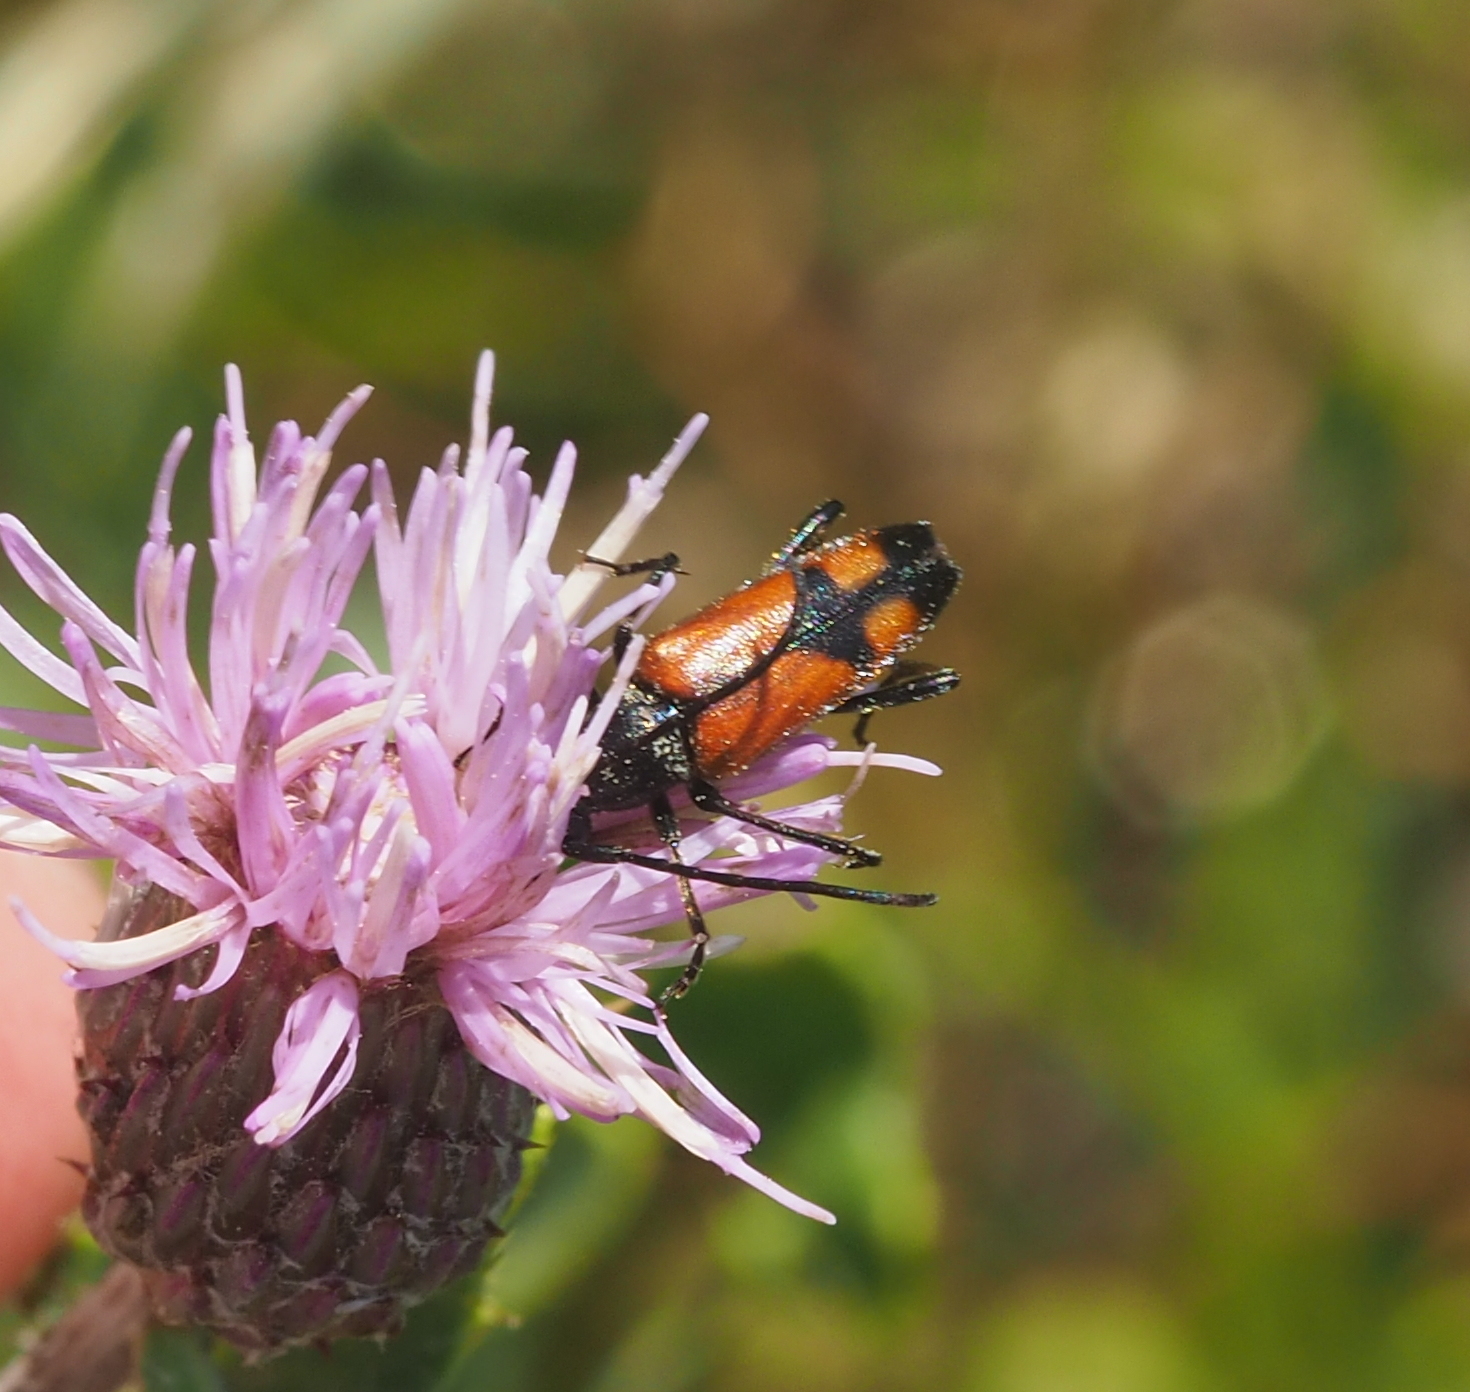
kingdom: Animalia
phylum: Arthropoda
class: Insecta
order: Coleoptera
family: Cerambycidae
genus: Stenurella
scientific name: Stenurella bifasciata
